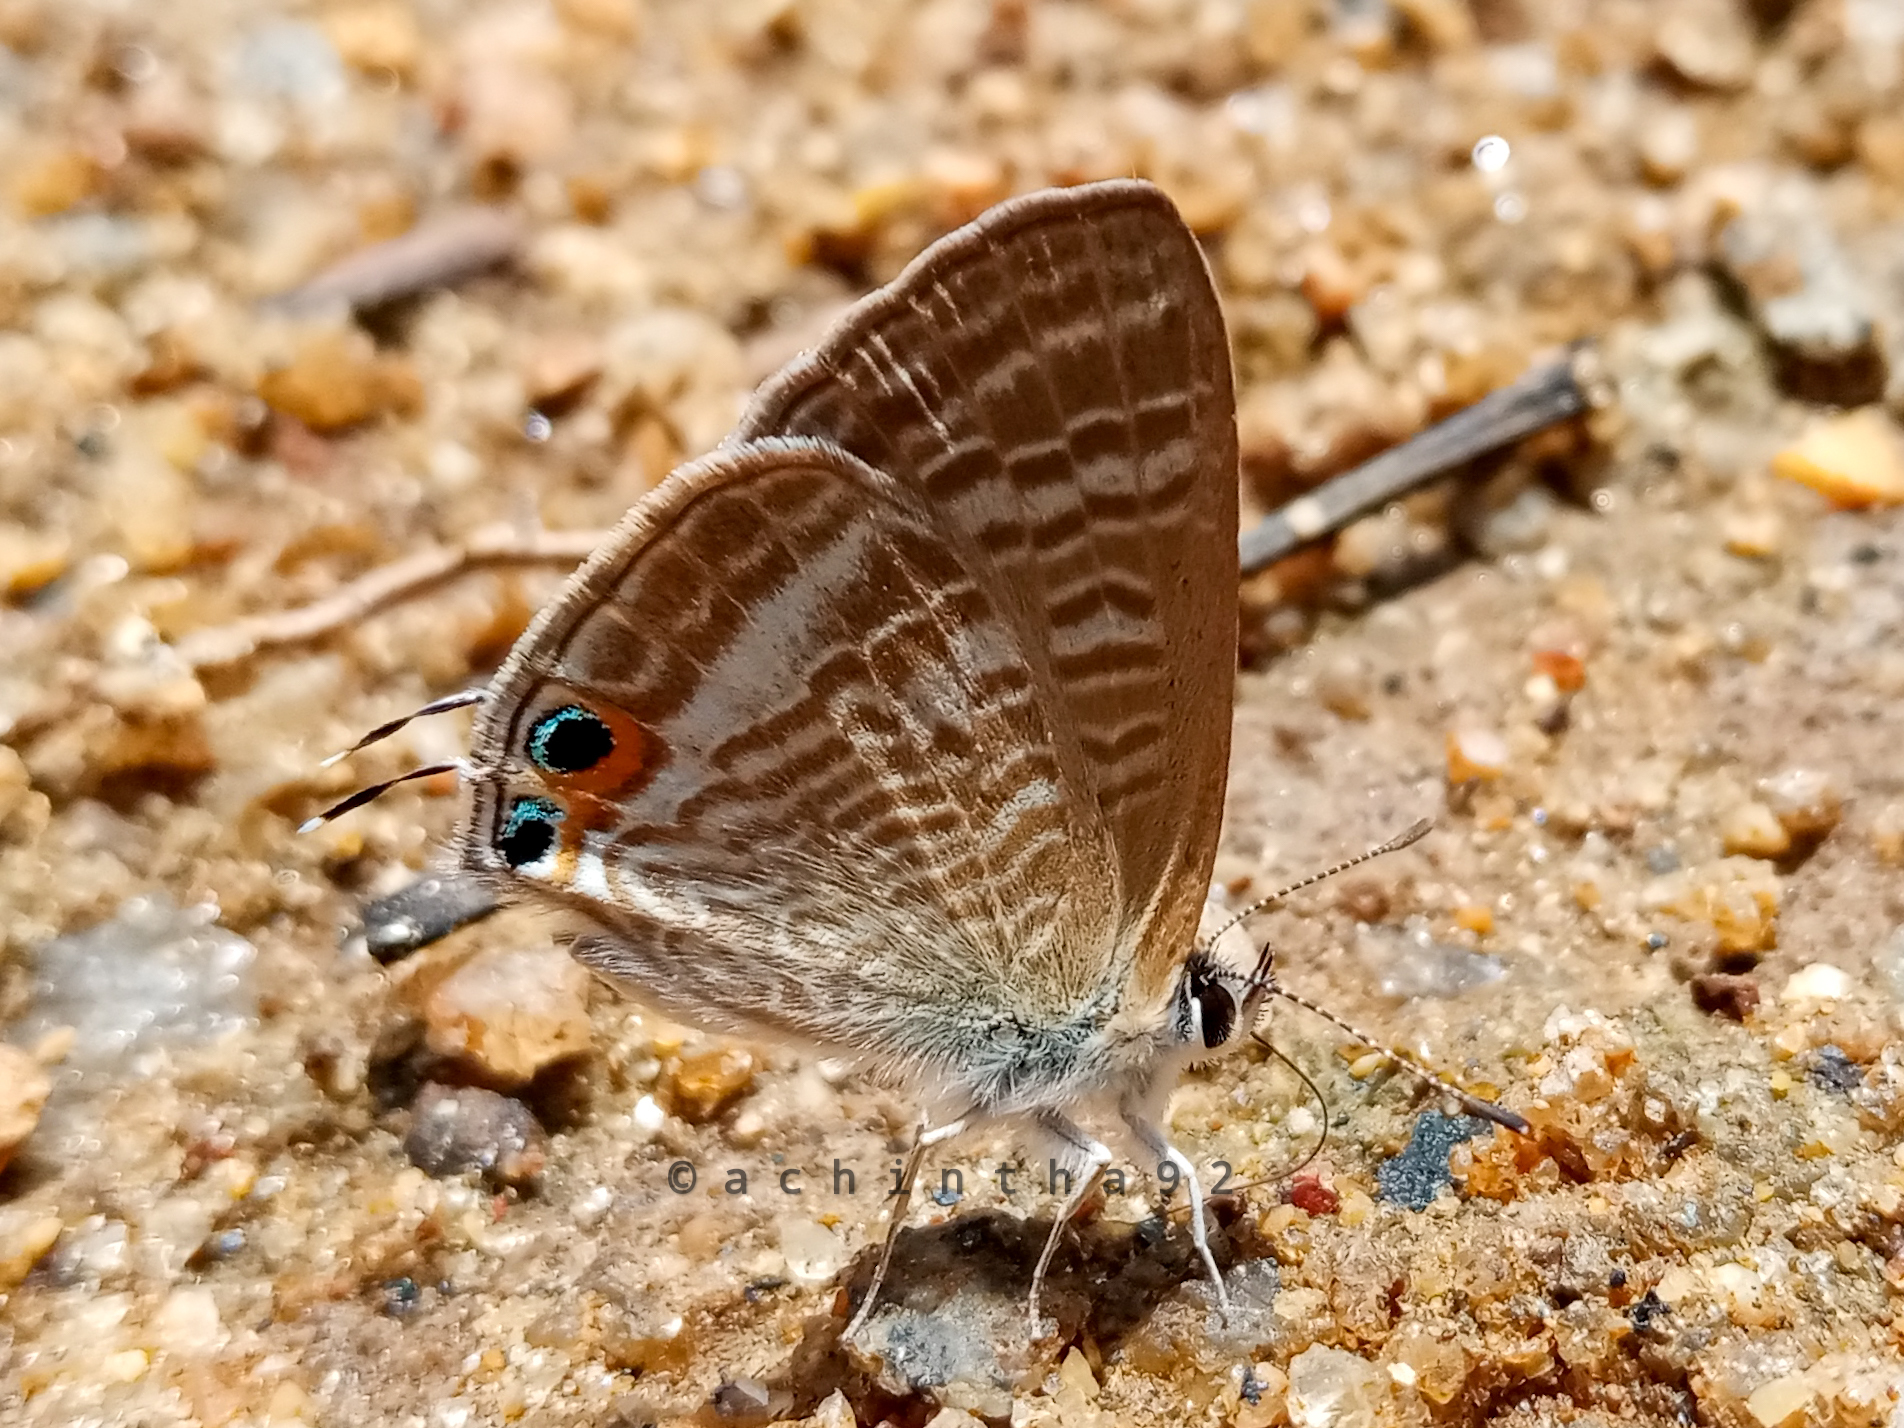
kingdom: Animalia
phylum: Arthropoda
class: Insecta
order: Lepidoptera
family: Lycaenidae
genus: Lampides
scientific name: Lampides boeticus
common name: Long-tailed blue
